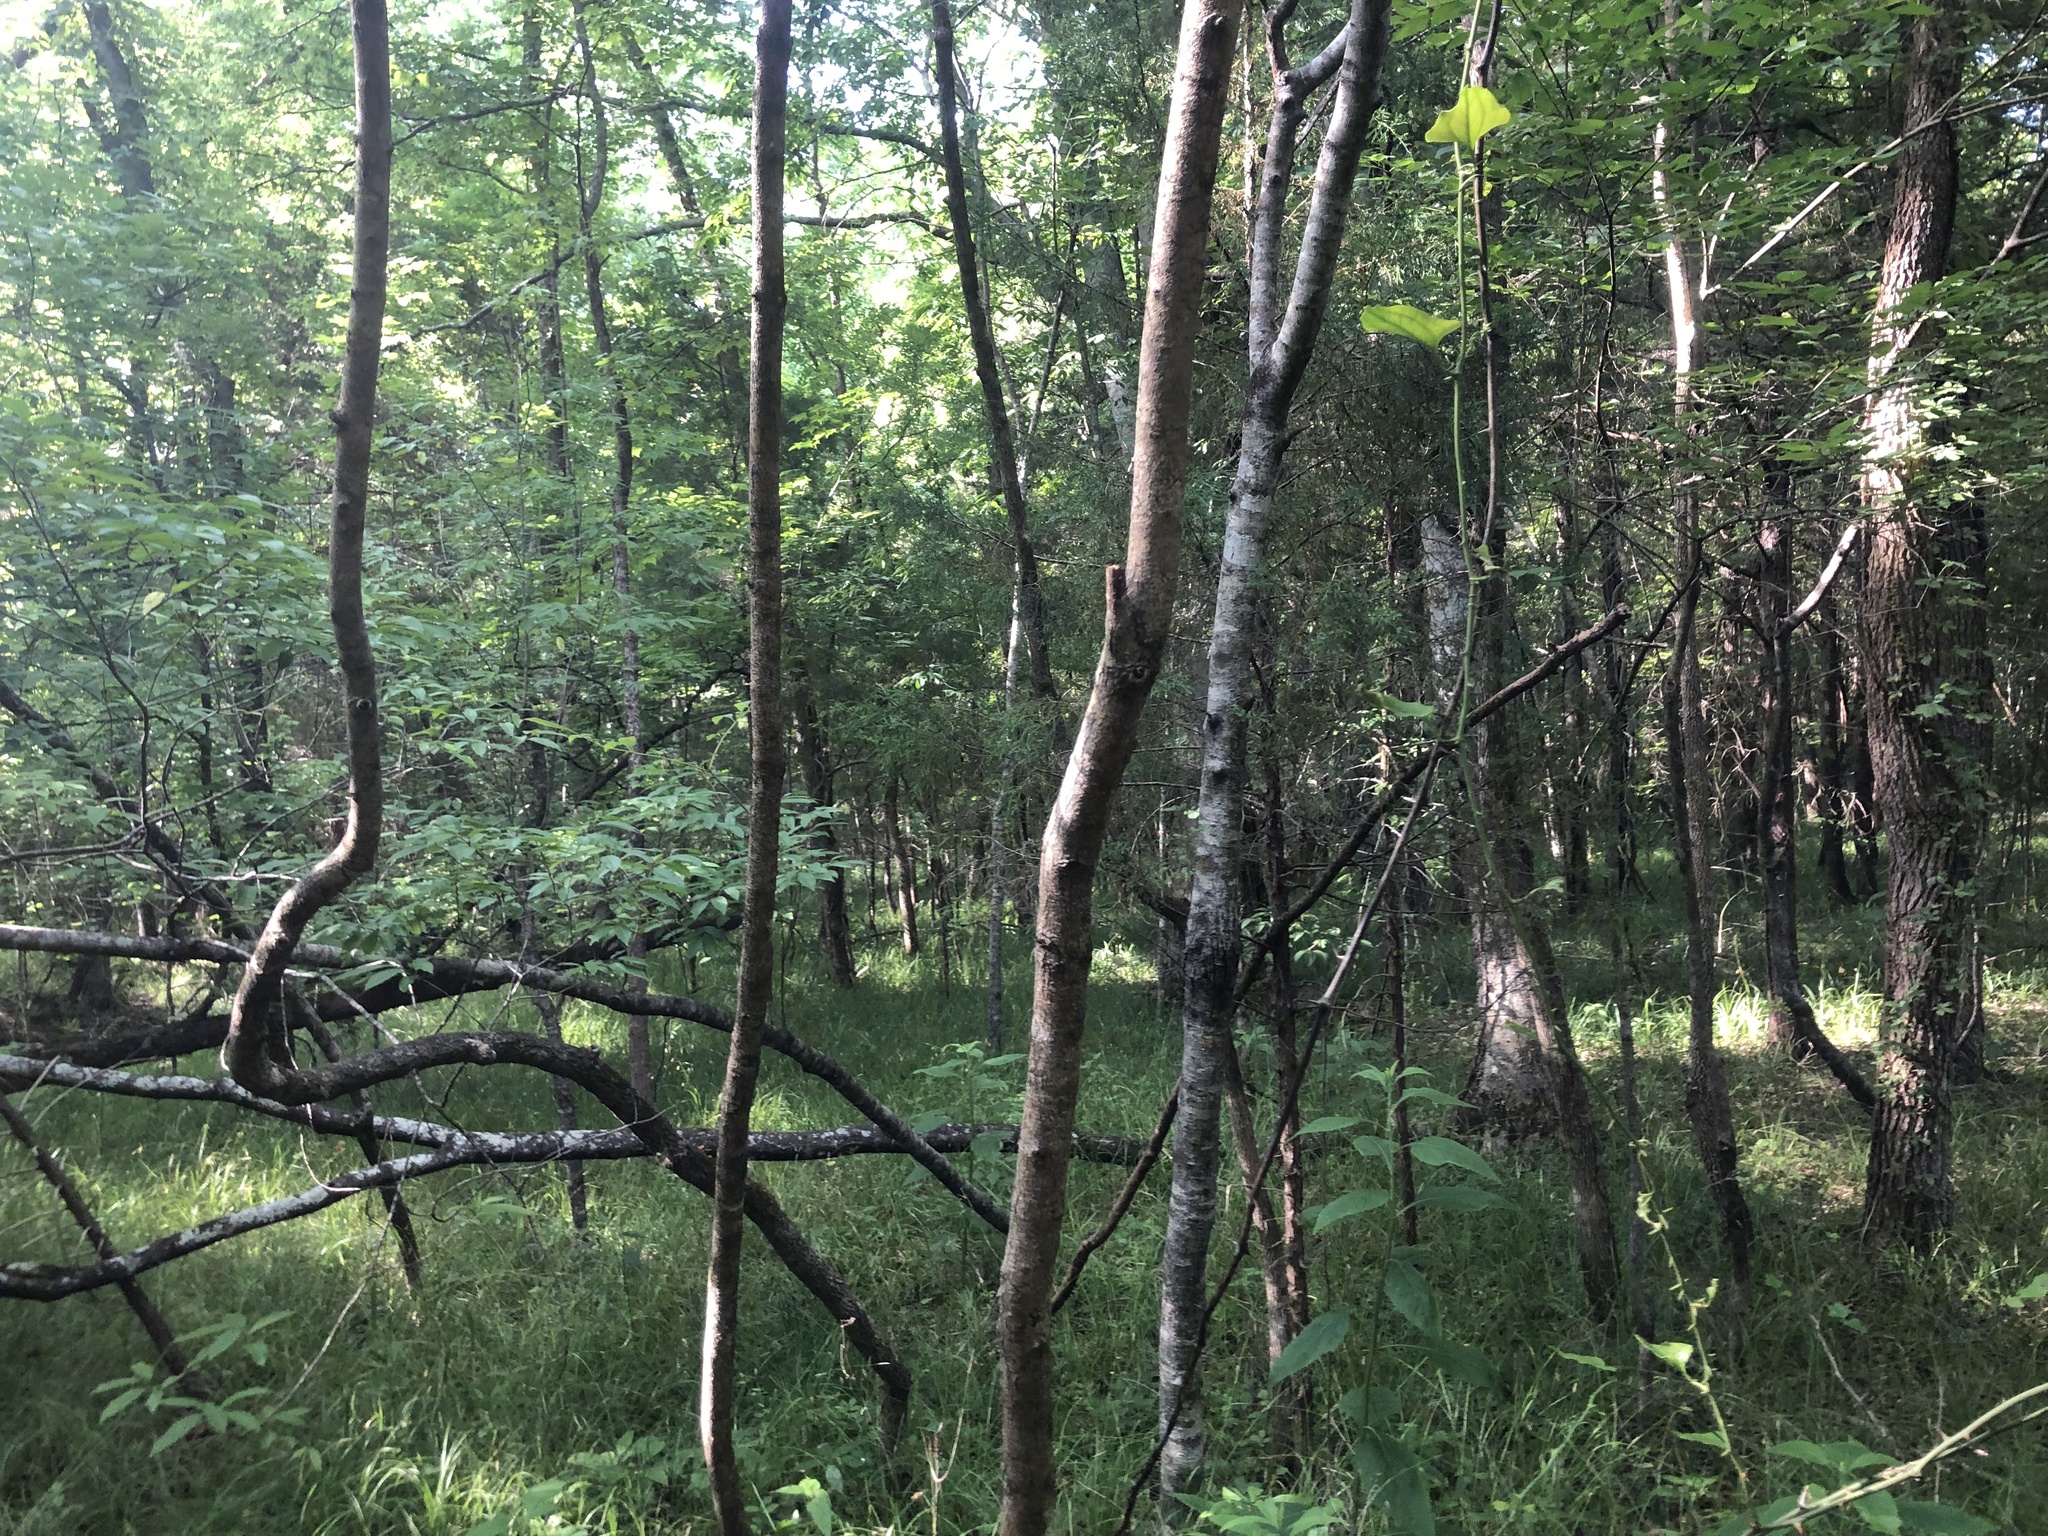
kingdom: Plantae
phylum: Tracheophyta
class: Liliopsida
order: Poales
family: Cyperaceae
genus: Carex
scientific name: Carex cherokeensis
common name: Cherokee sedge
